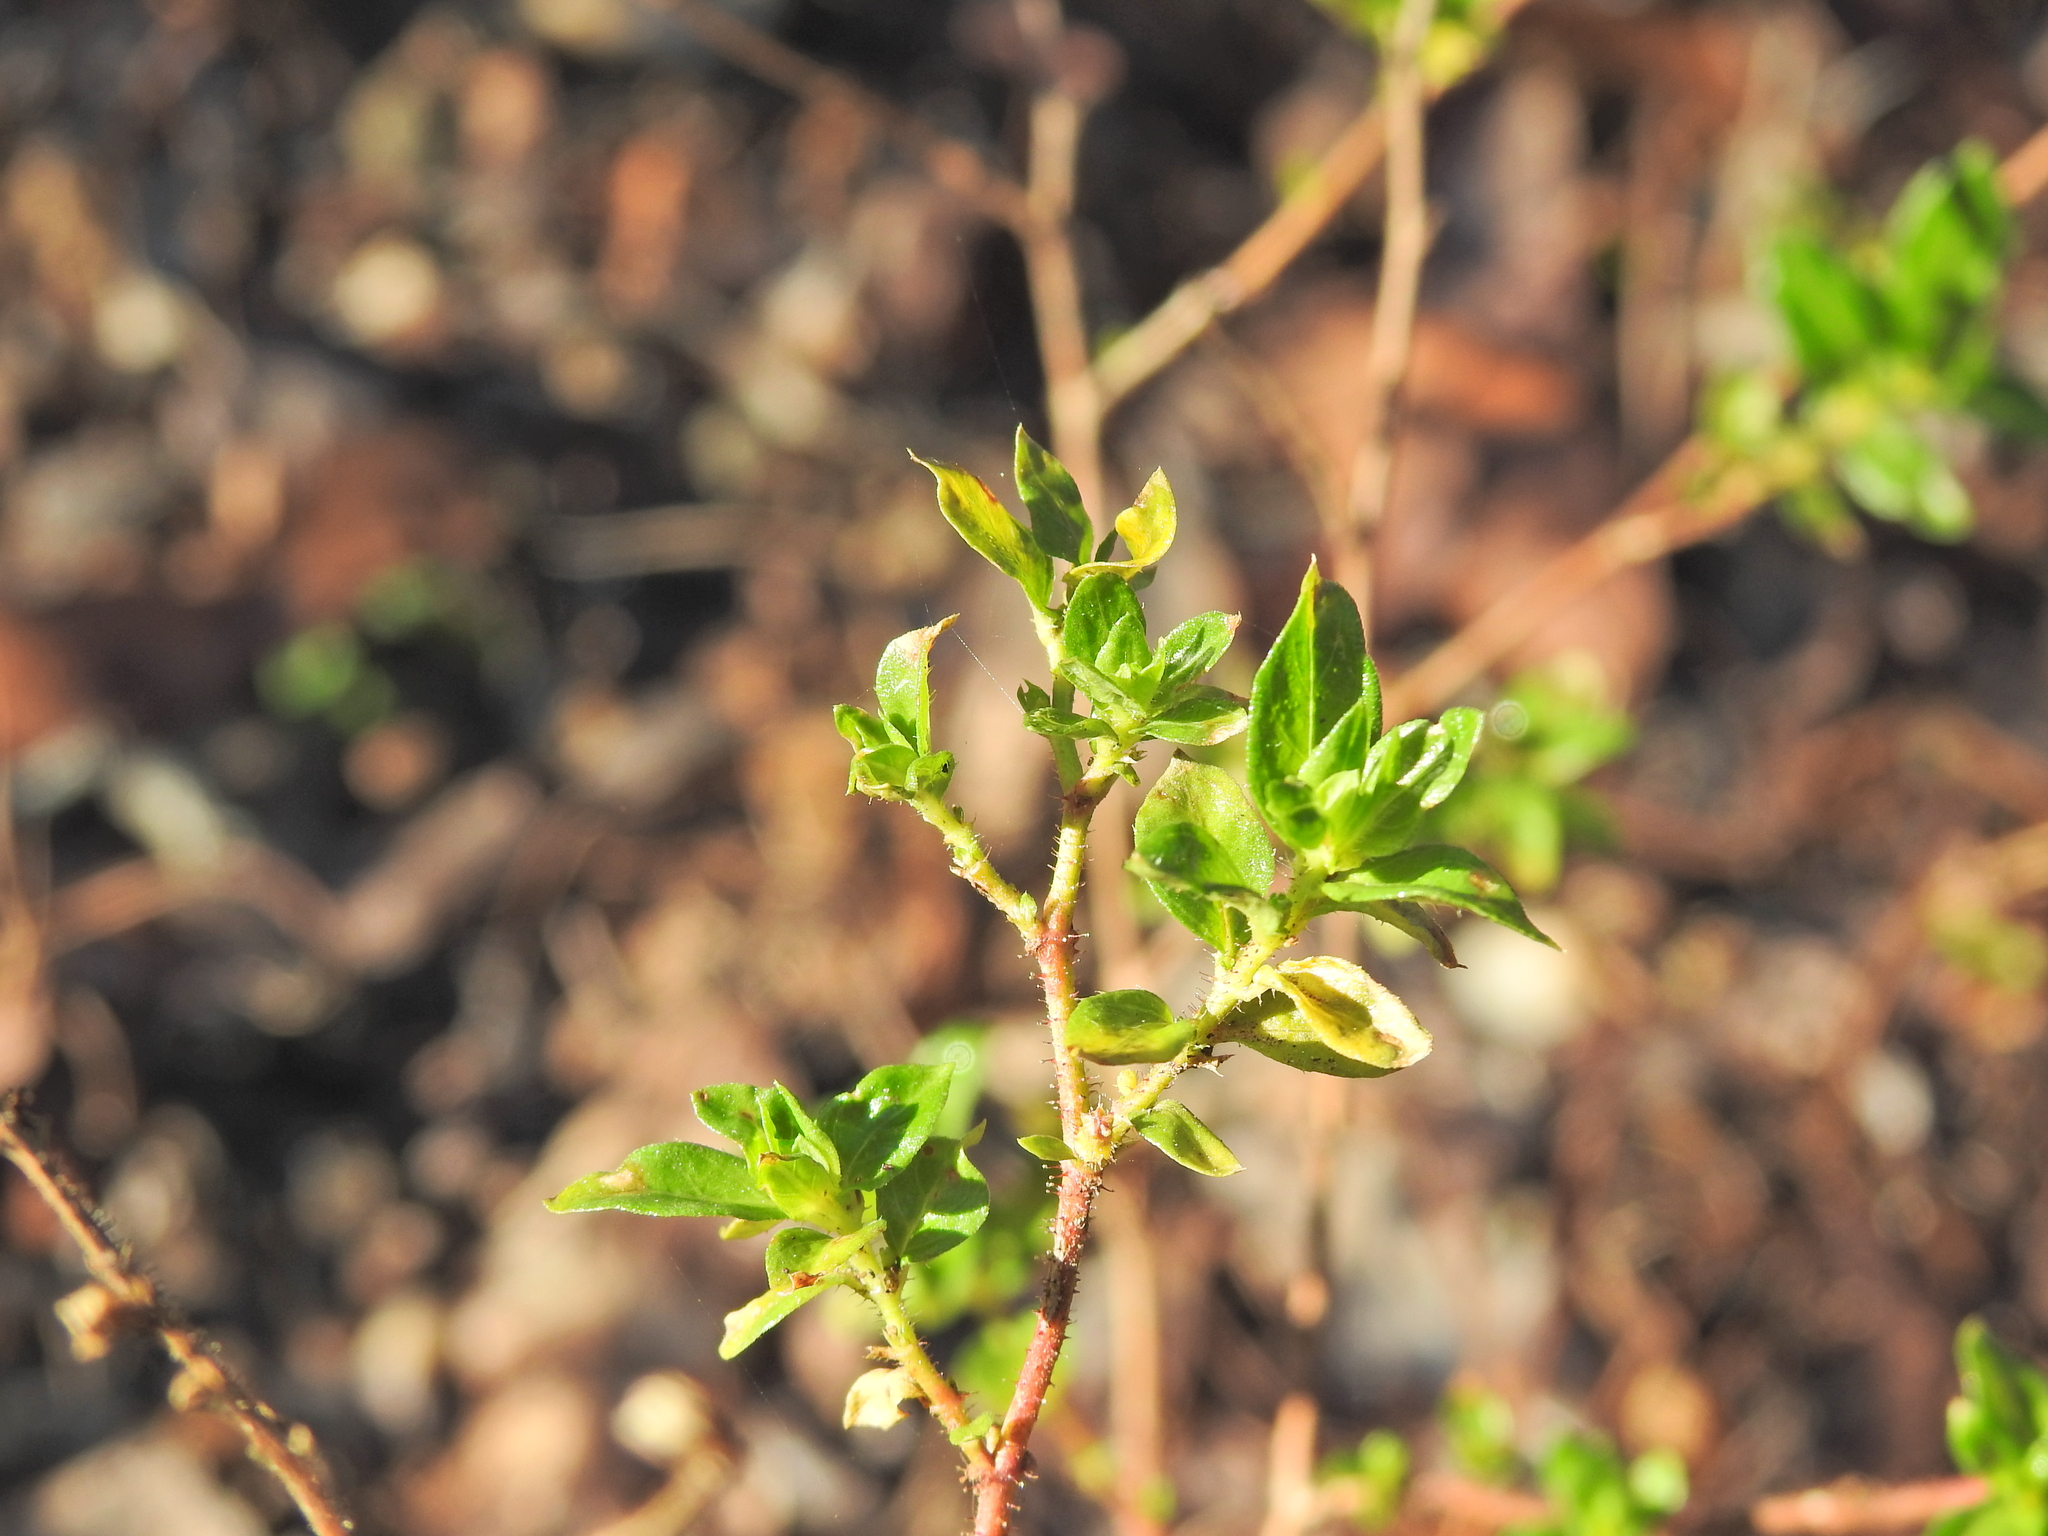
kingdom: Plantae
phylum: Tracheophyta
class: Magnoliopsida
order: Myrtales
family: Lythraceae
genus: Cuphea
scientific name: Cuphea carthagenensis
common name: Colombian waxweed
